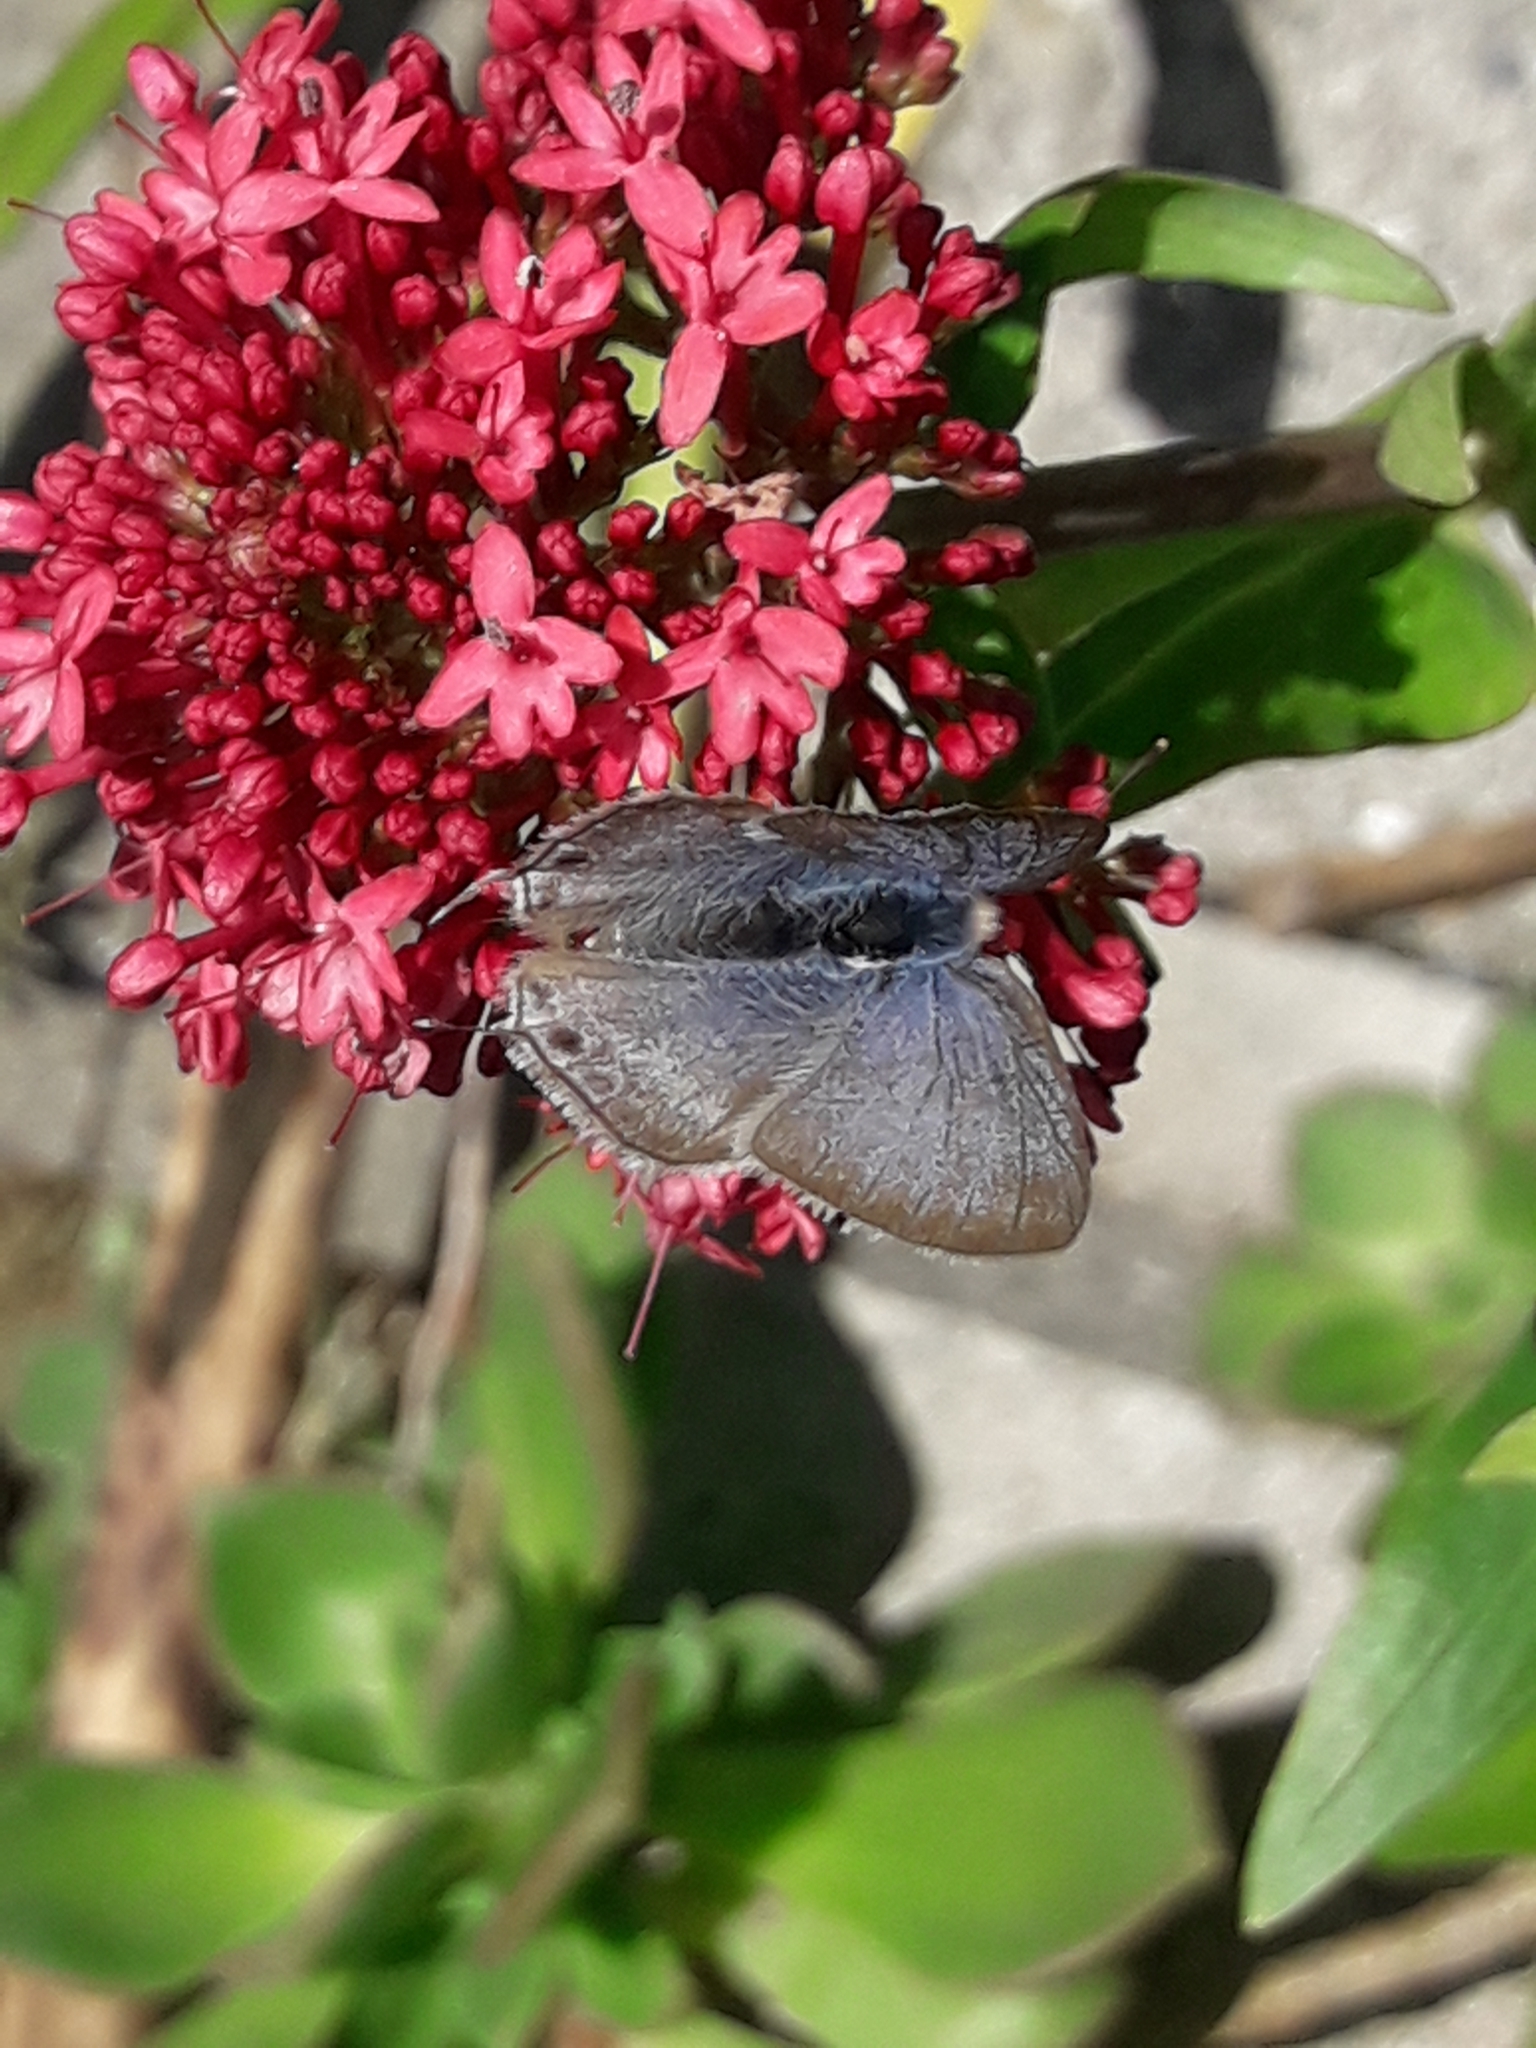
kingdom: Animalia
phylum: Arthropoda
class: Insecta
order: Lepidoptera
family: Lycaenidae
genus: Lampides
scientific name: Lampides boeticus
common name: Long-tailed blue
